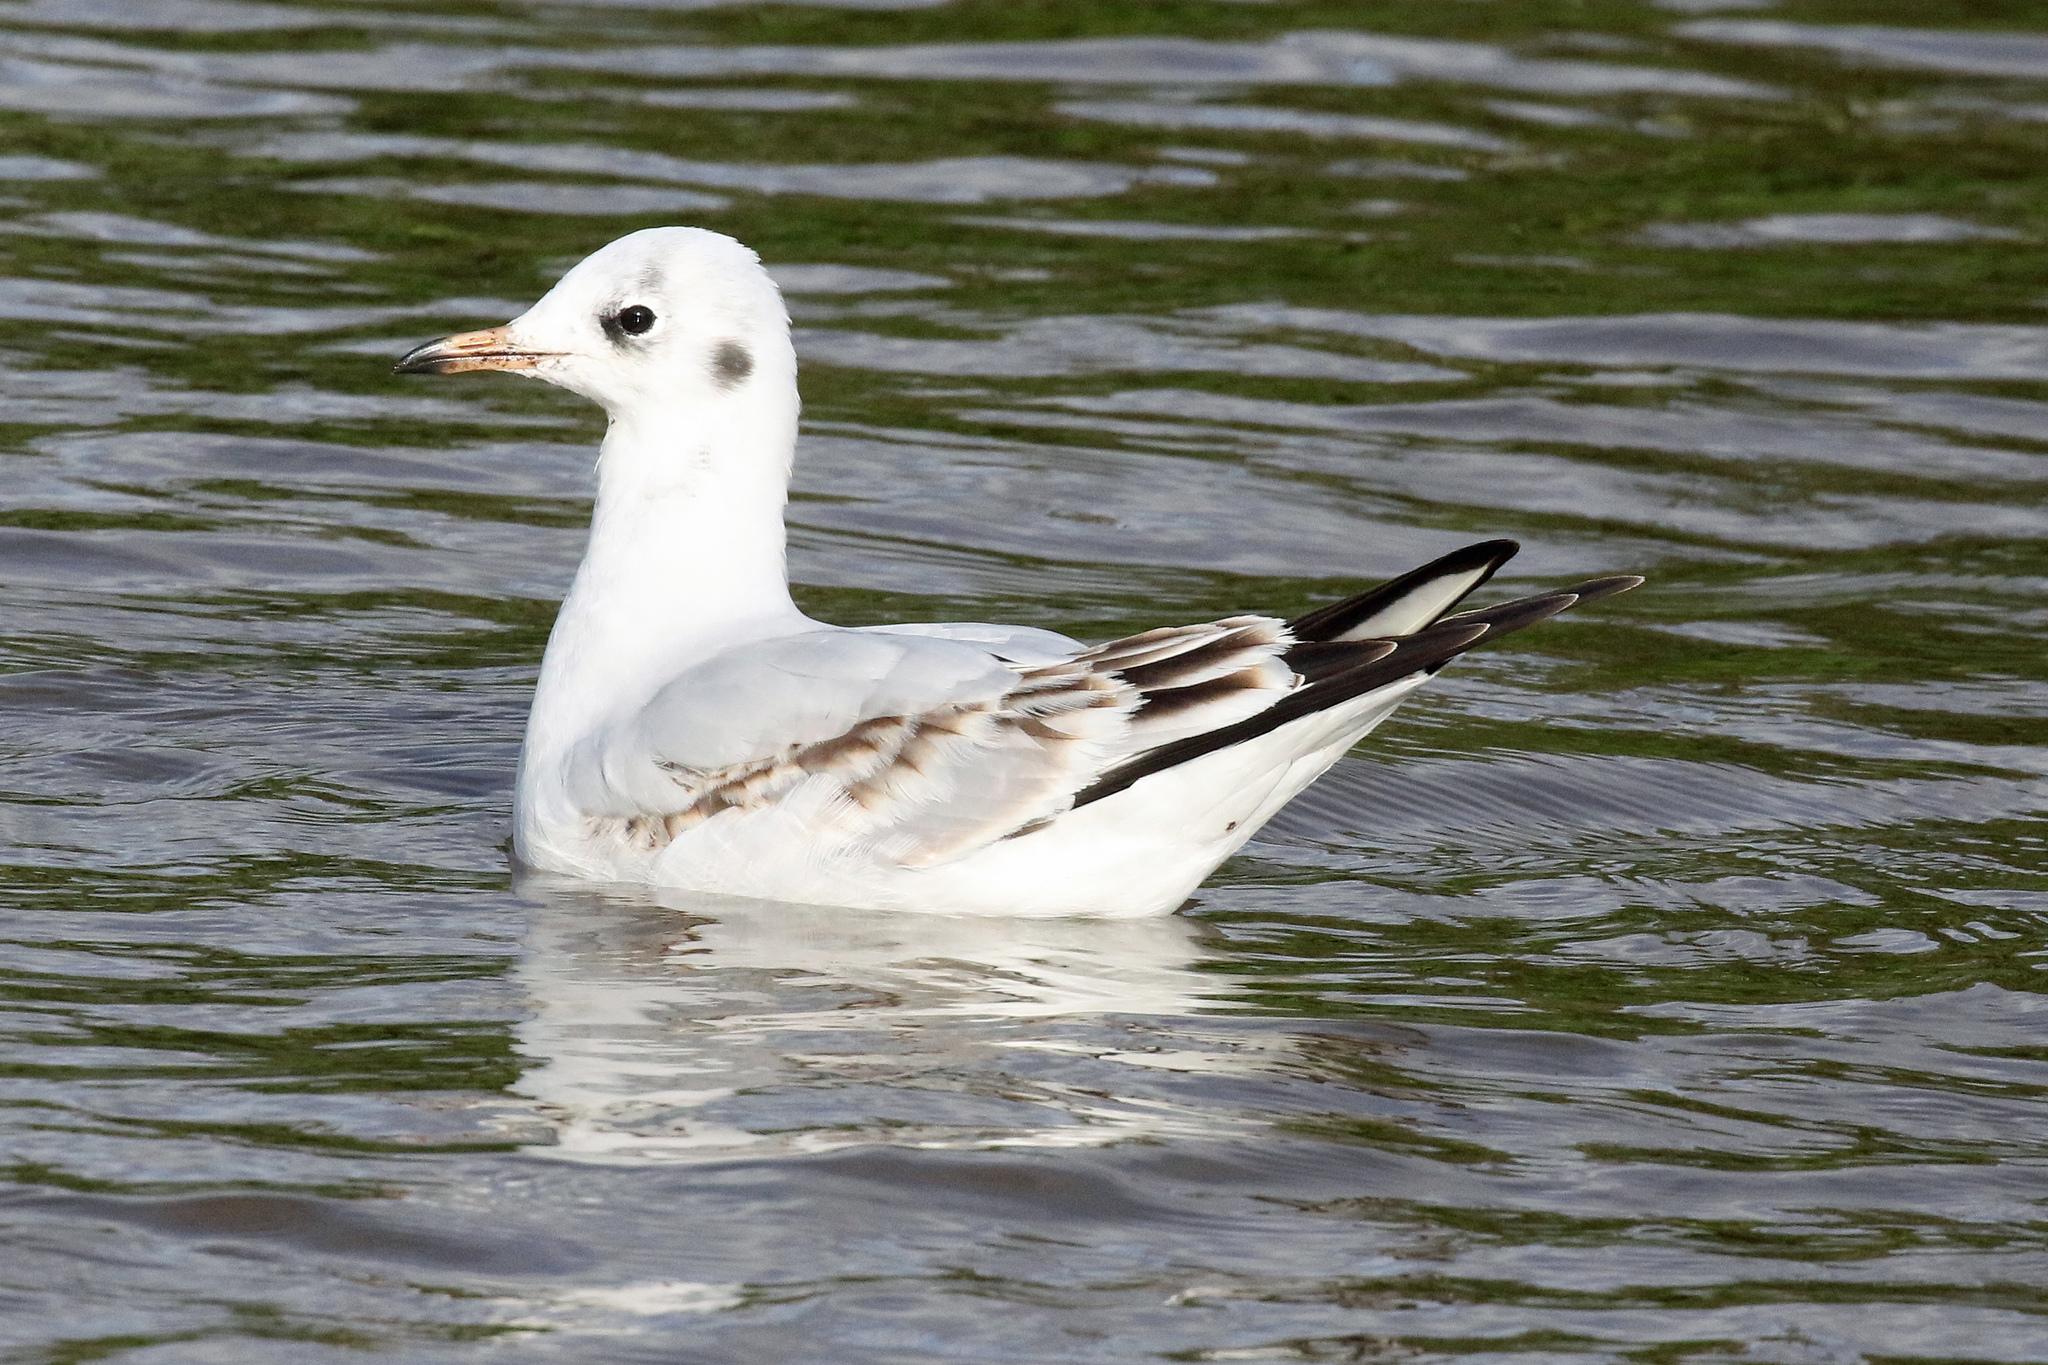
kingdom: Animalia
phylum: Chordata
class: Aves
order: Charadriiformes
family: Laridae
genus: Chroicocephalus
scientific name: Chroicocephalus ridibundus
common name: Black-headed gull
